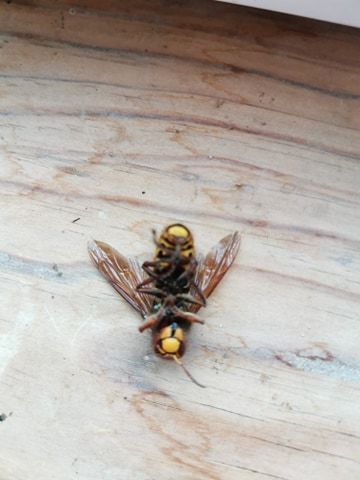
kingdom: Animalia
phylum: Arthropoda
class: Insecta
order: Hymenoptera
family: Vespidae
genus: Vespa
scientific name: Vespa crabro
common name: Hornet
